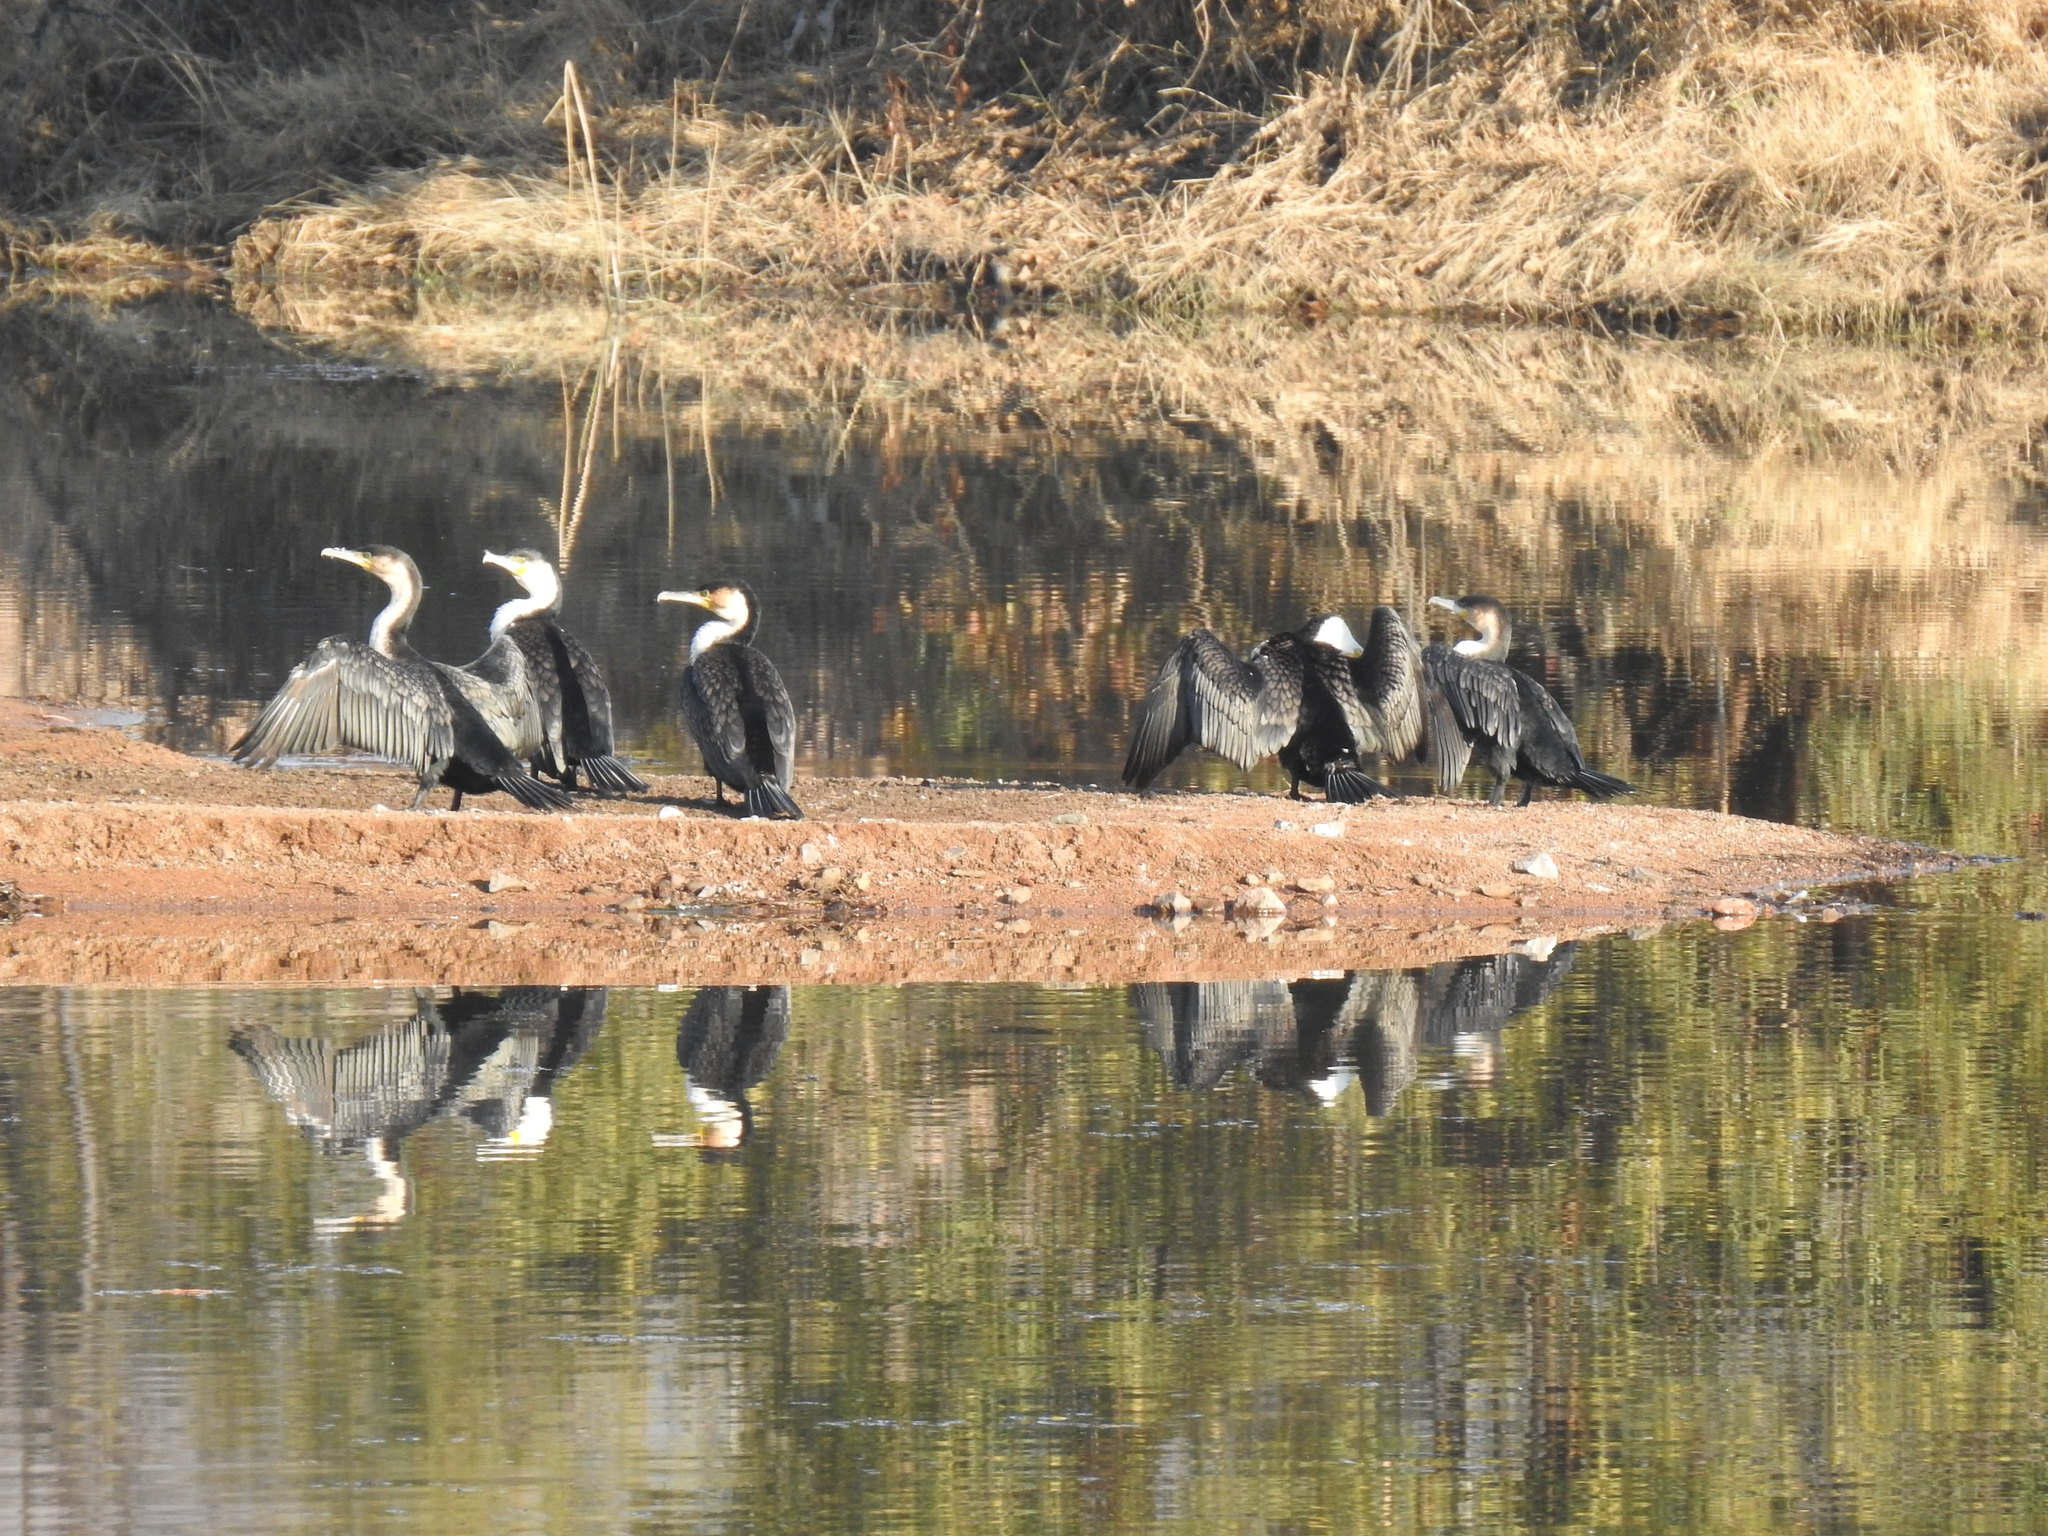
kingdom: Animalia
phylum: Chordata
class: Aves
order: Suliformes
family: Phalacrocoracidae
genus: Phalacrocorax
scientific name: Phalacrocorax carbo
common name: Great cormorant
